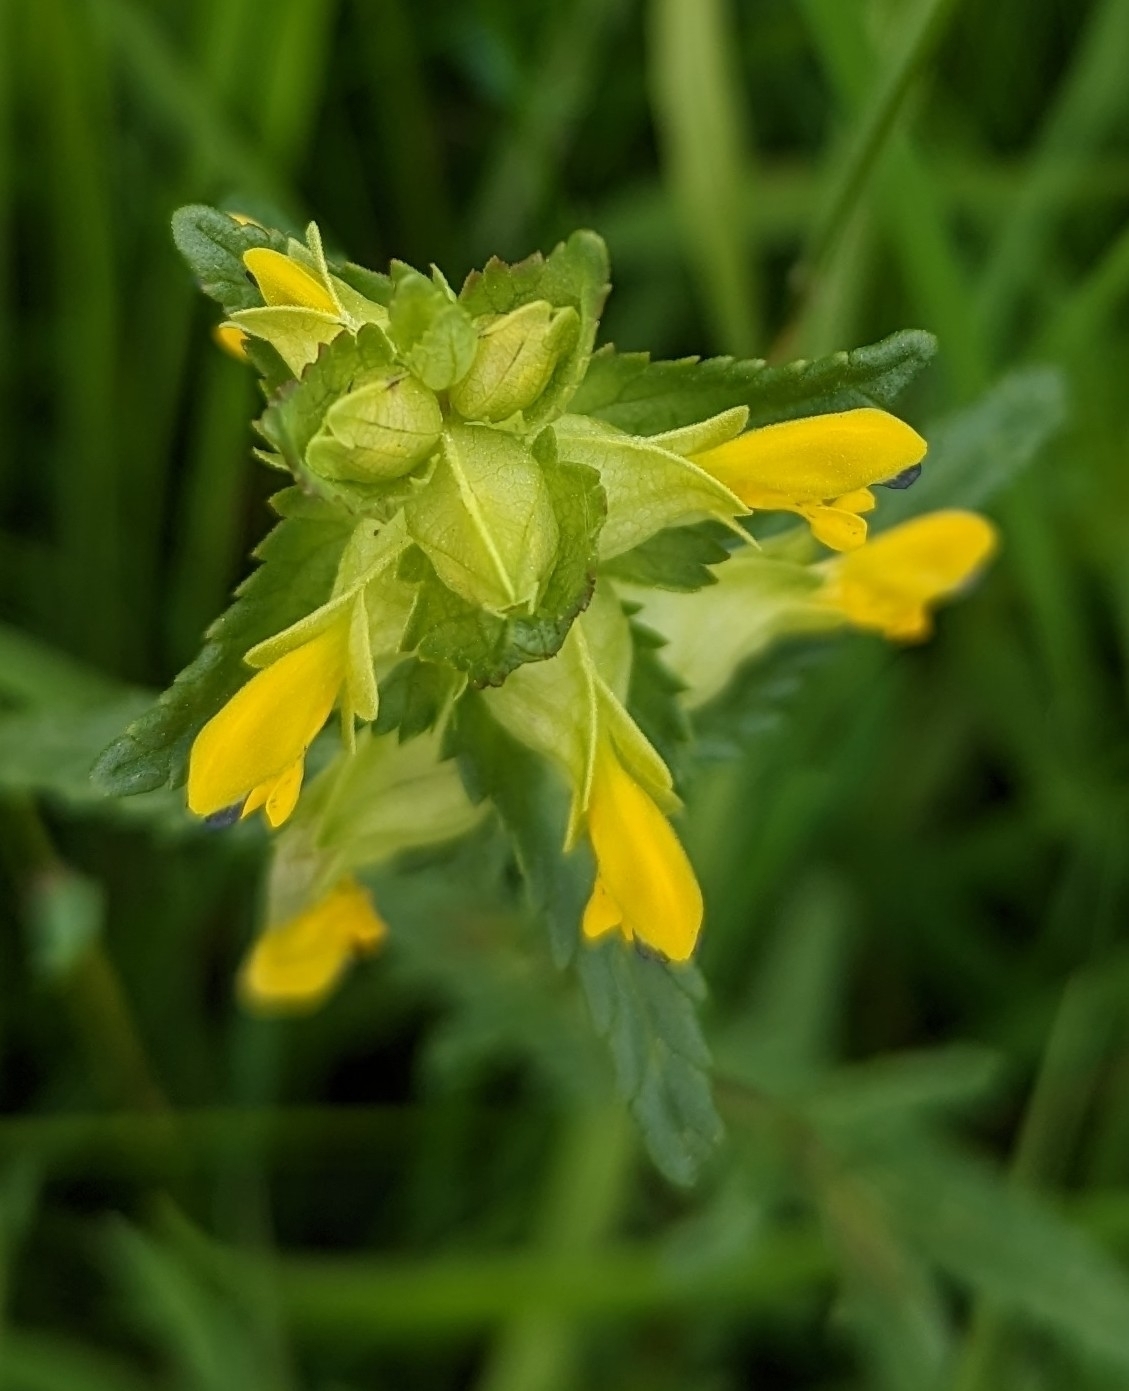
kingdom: Plantae
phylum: Tracheophyta
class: Magnoliopsida
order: Lamiales
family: Orobanchaceae
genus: Rhinanthus
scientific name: Rhinanthus minor
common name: Yellow-rattle
